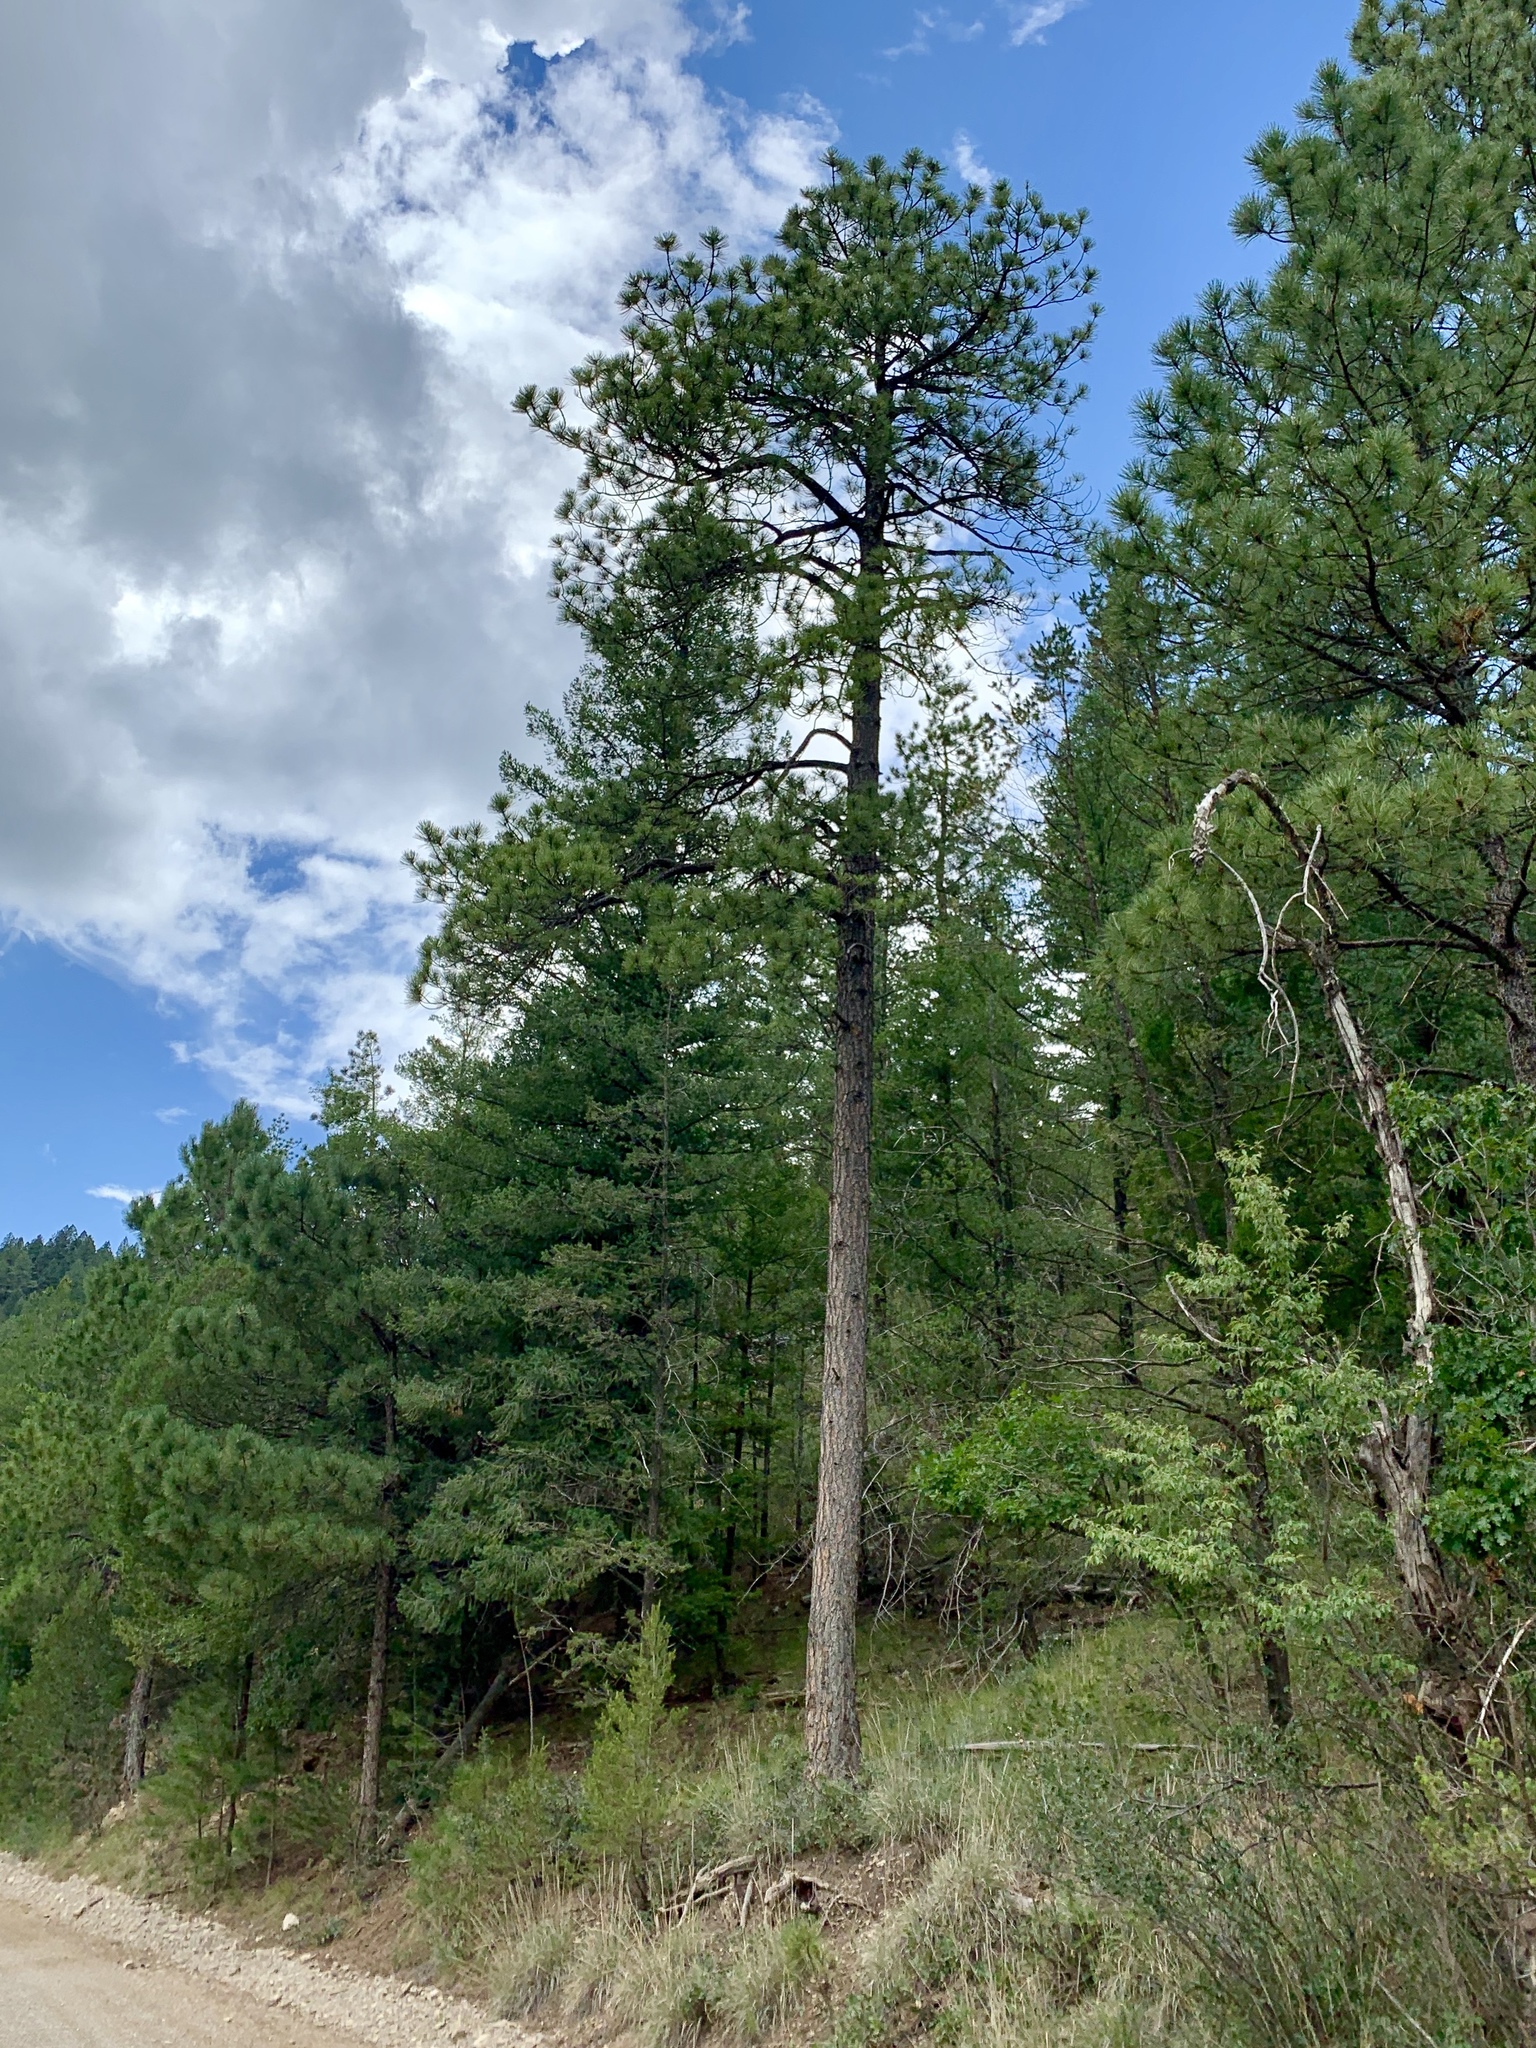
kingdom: Plantae
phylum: Tracheophyta
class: Pinopsida
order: Pinales
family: Pinaceae
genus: Pinus
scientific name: Pinus ponderosa
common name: Western yellow-pine
